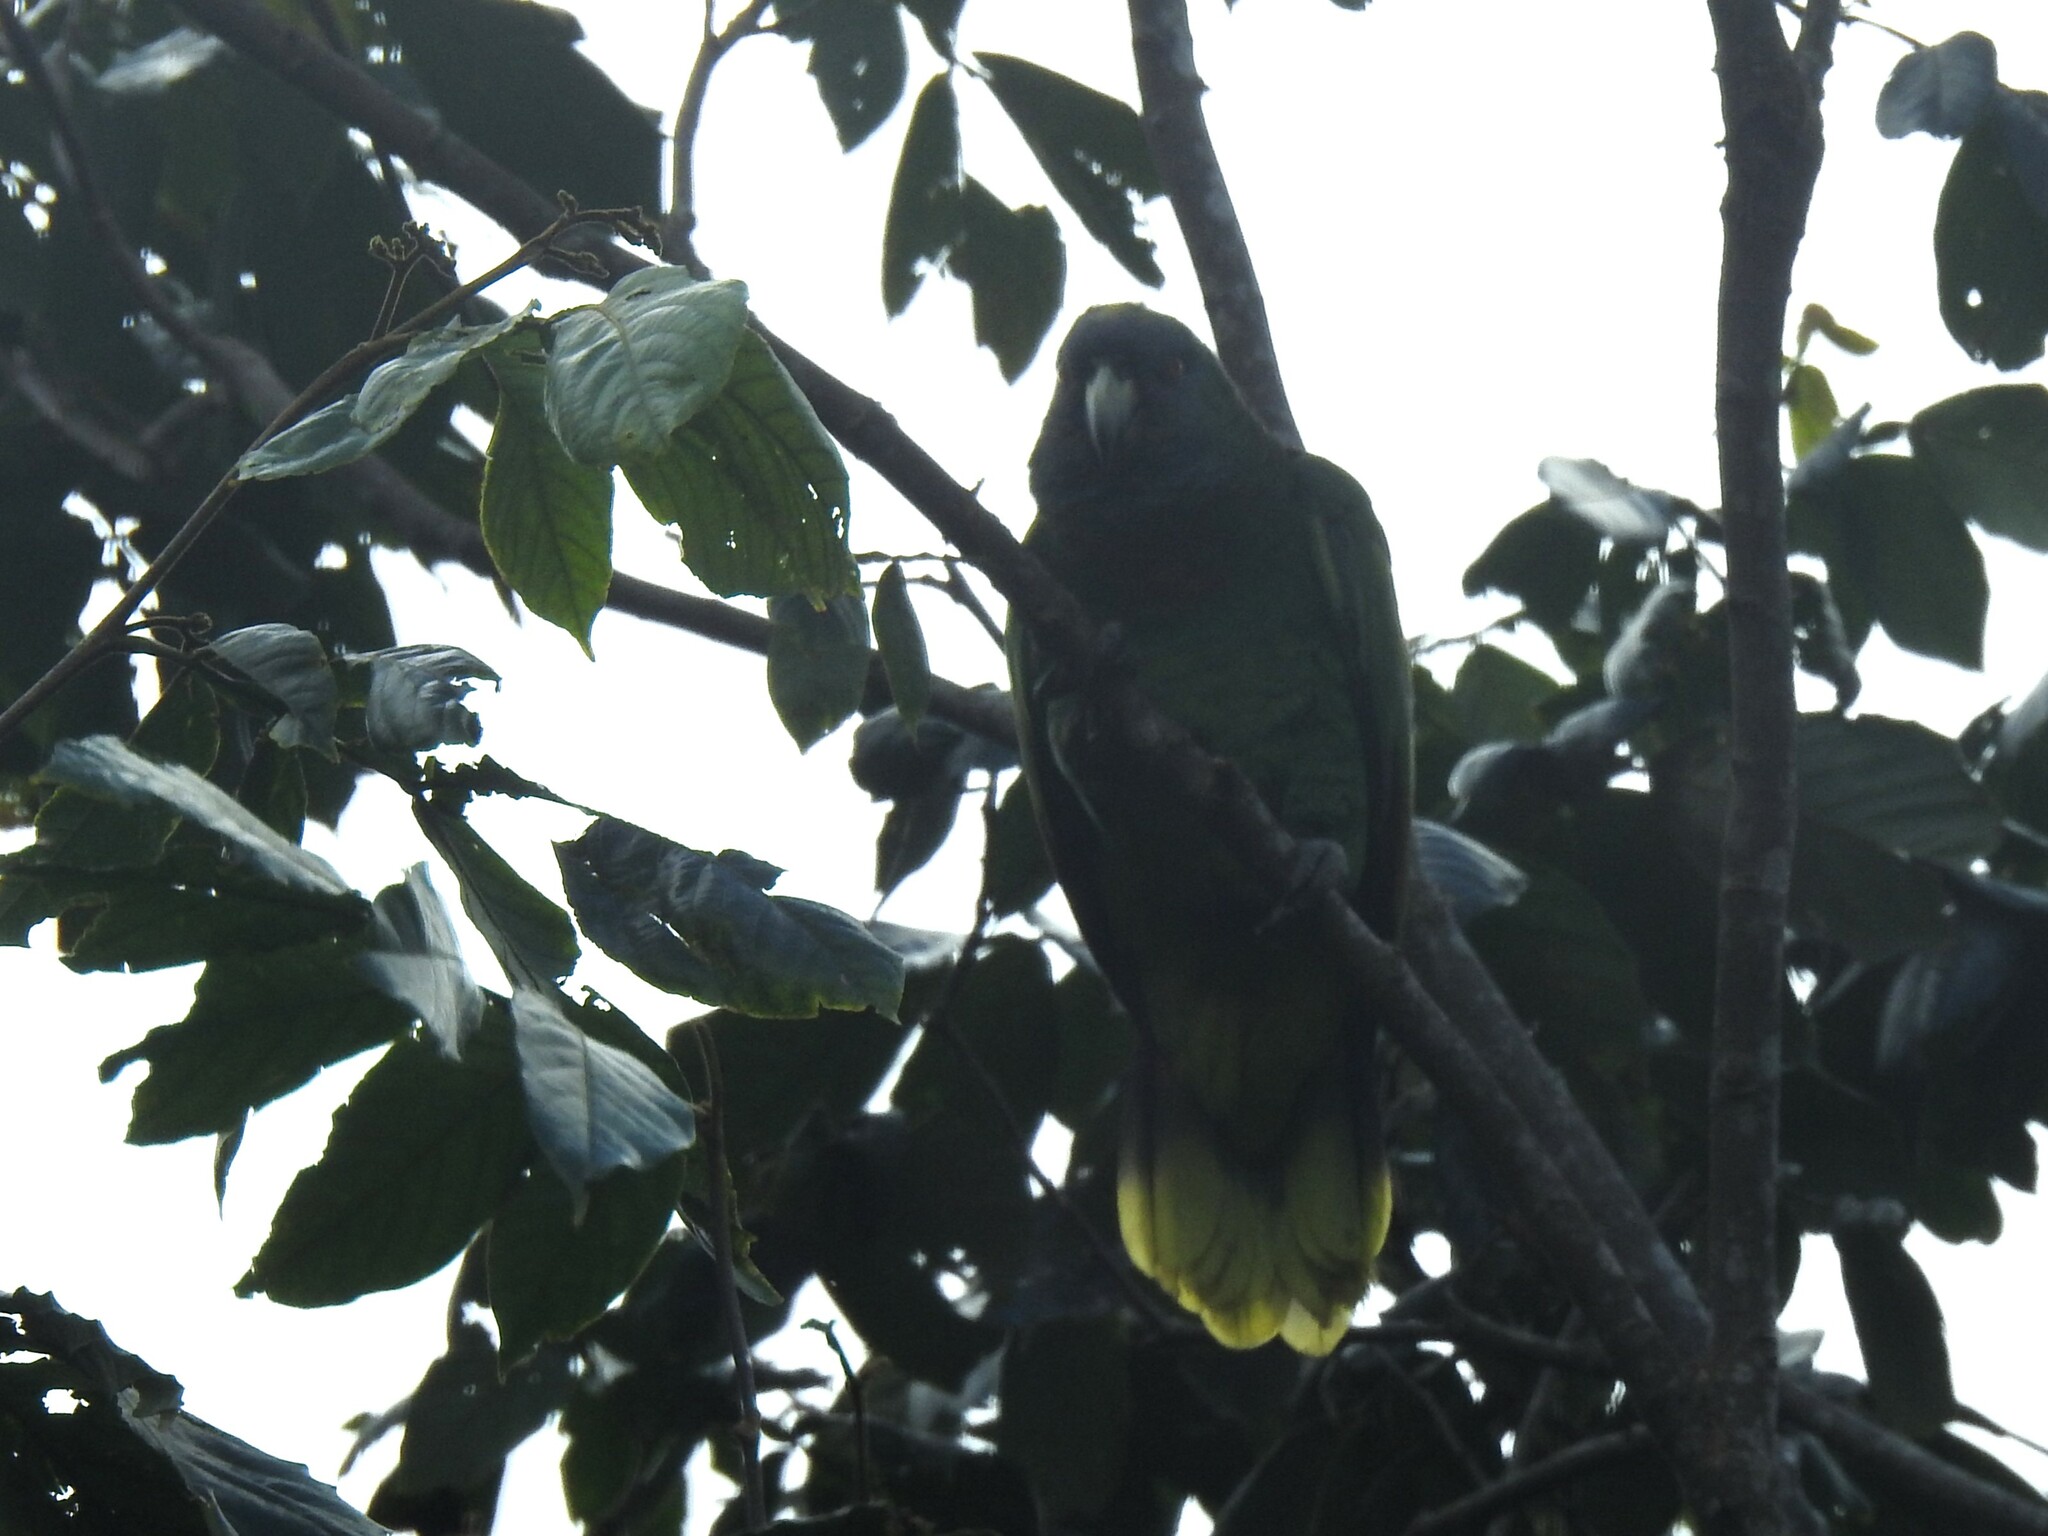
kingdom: Animalia
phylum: Chordata
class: Aves
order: Psittaciformes
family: Psittacidae
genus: Amazona
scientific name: Amazona arausiaca
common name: Red-necked amazon
